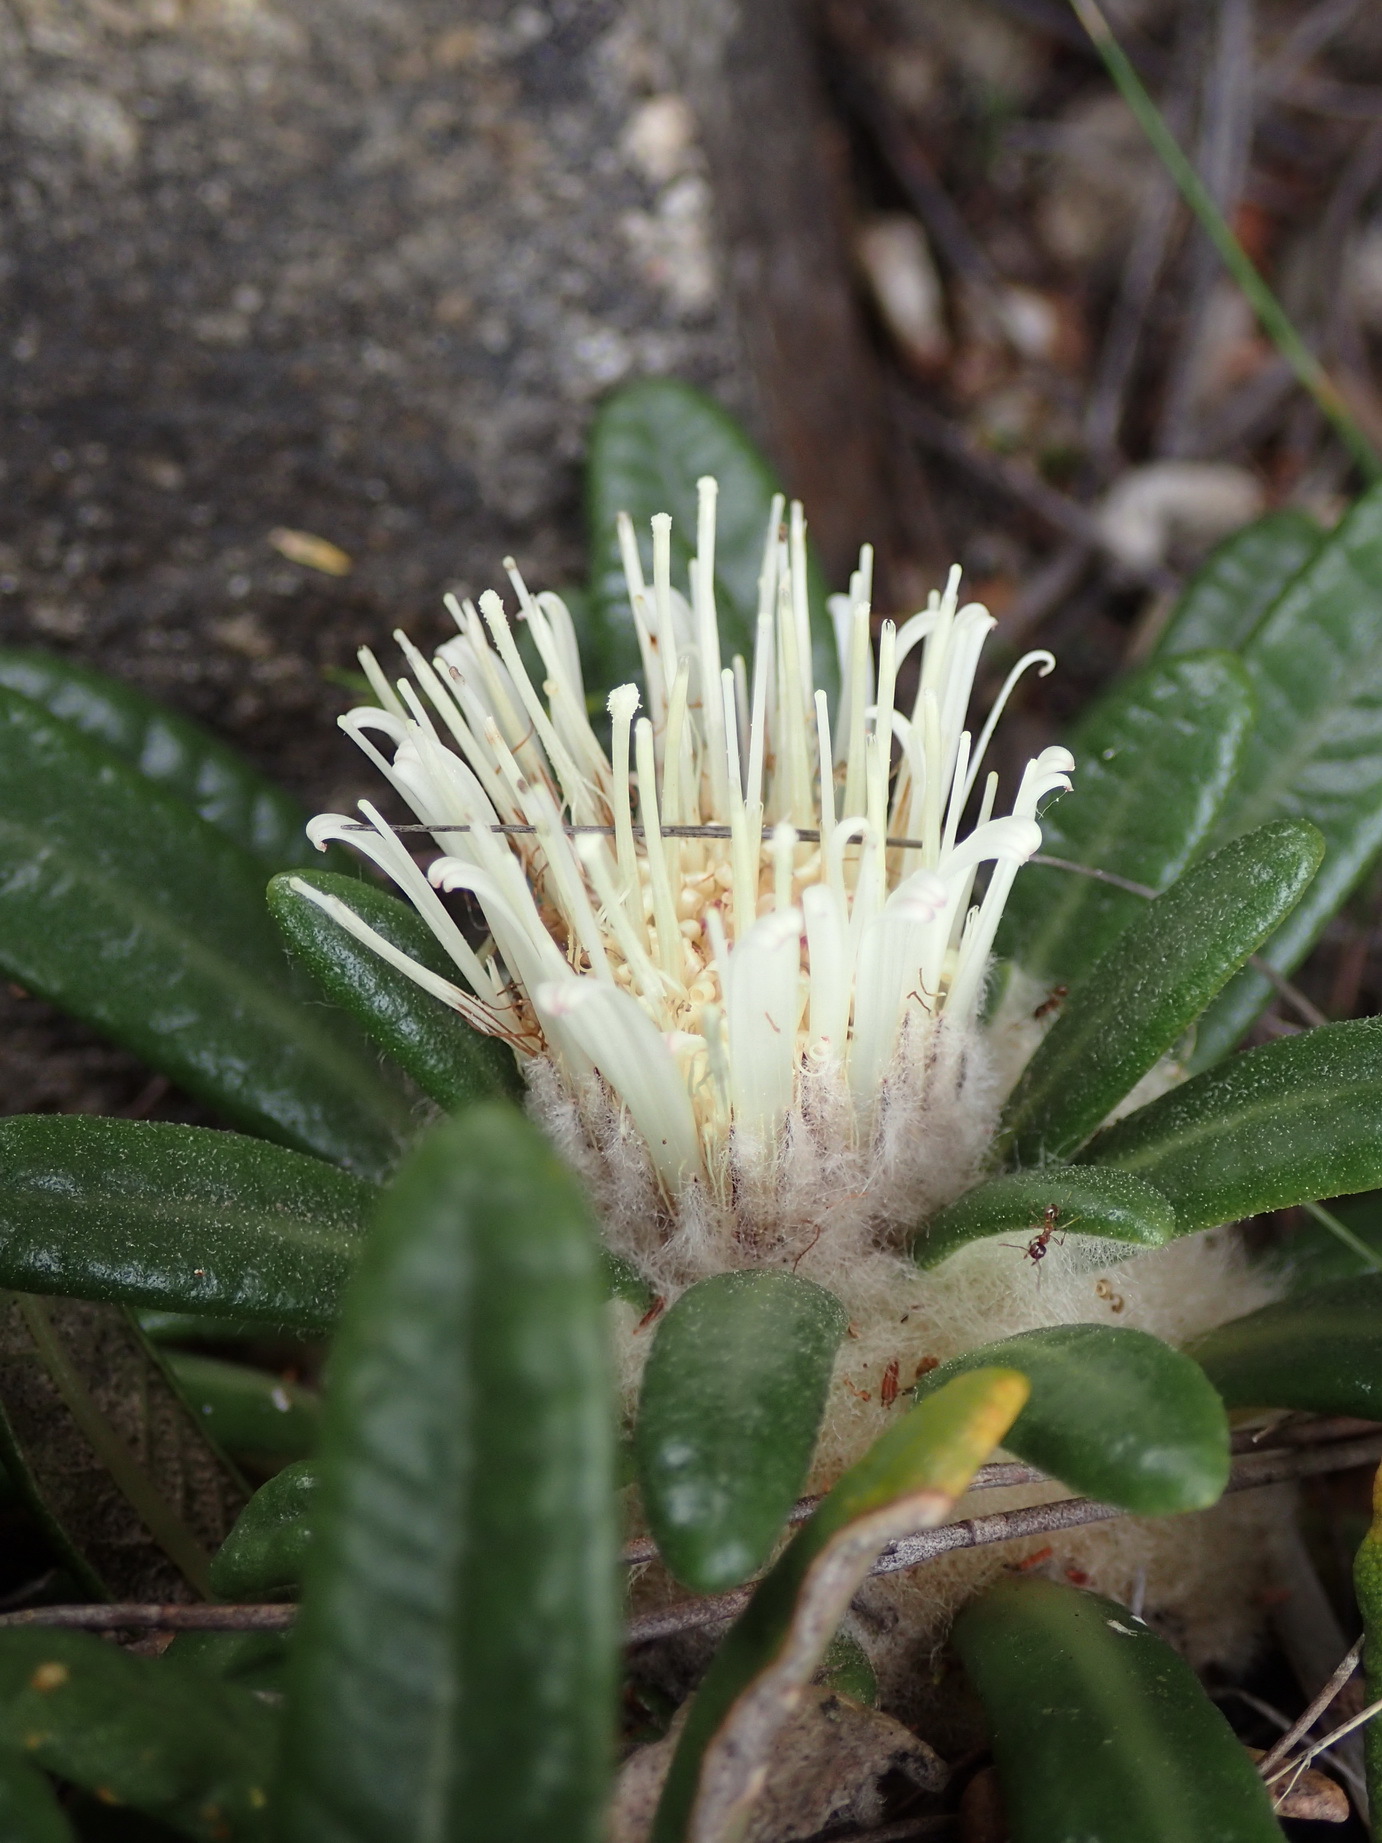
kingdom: Plantae
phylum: Tracheophyta
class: Magnoliopsida
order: Asterales
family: Asteraceae
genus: Oldenburgia
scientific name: Oldenburgia paradoxa
